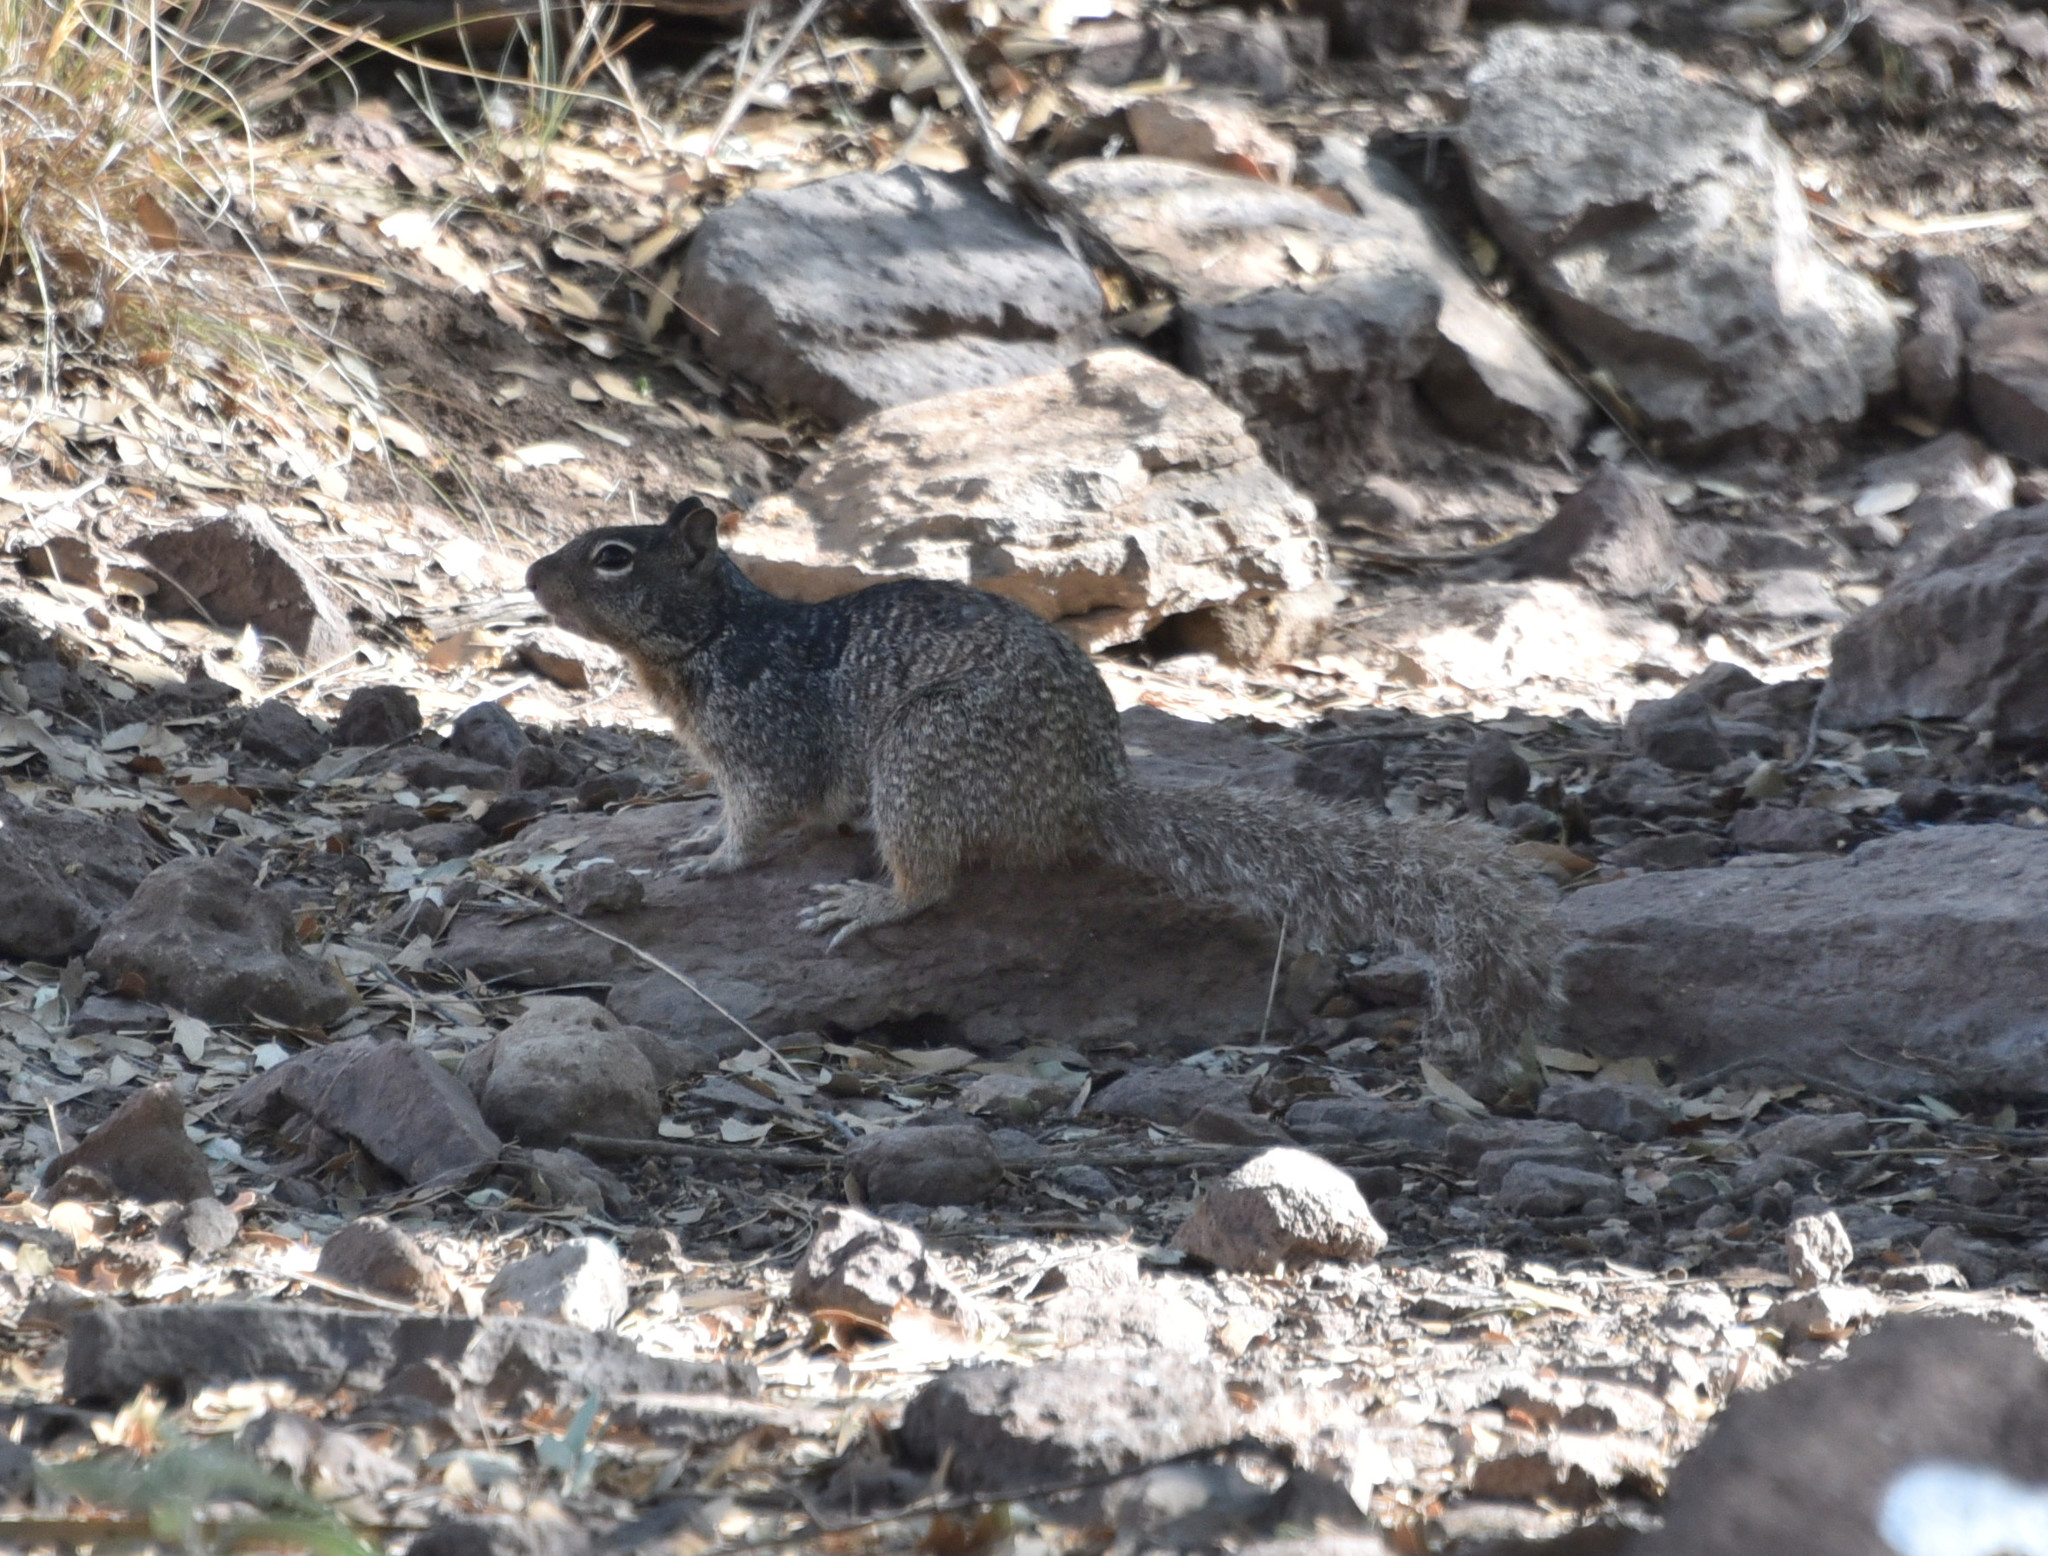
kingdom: Animalia
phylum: Chordata
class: Mammalia
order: Rodentia
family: Sciuridae
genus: Otospermophilus
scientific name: Otospermophilus variegatus
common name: Rock squirrel
